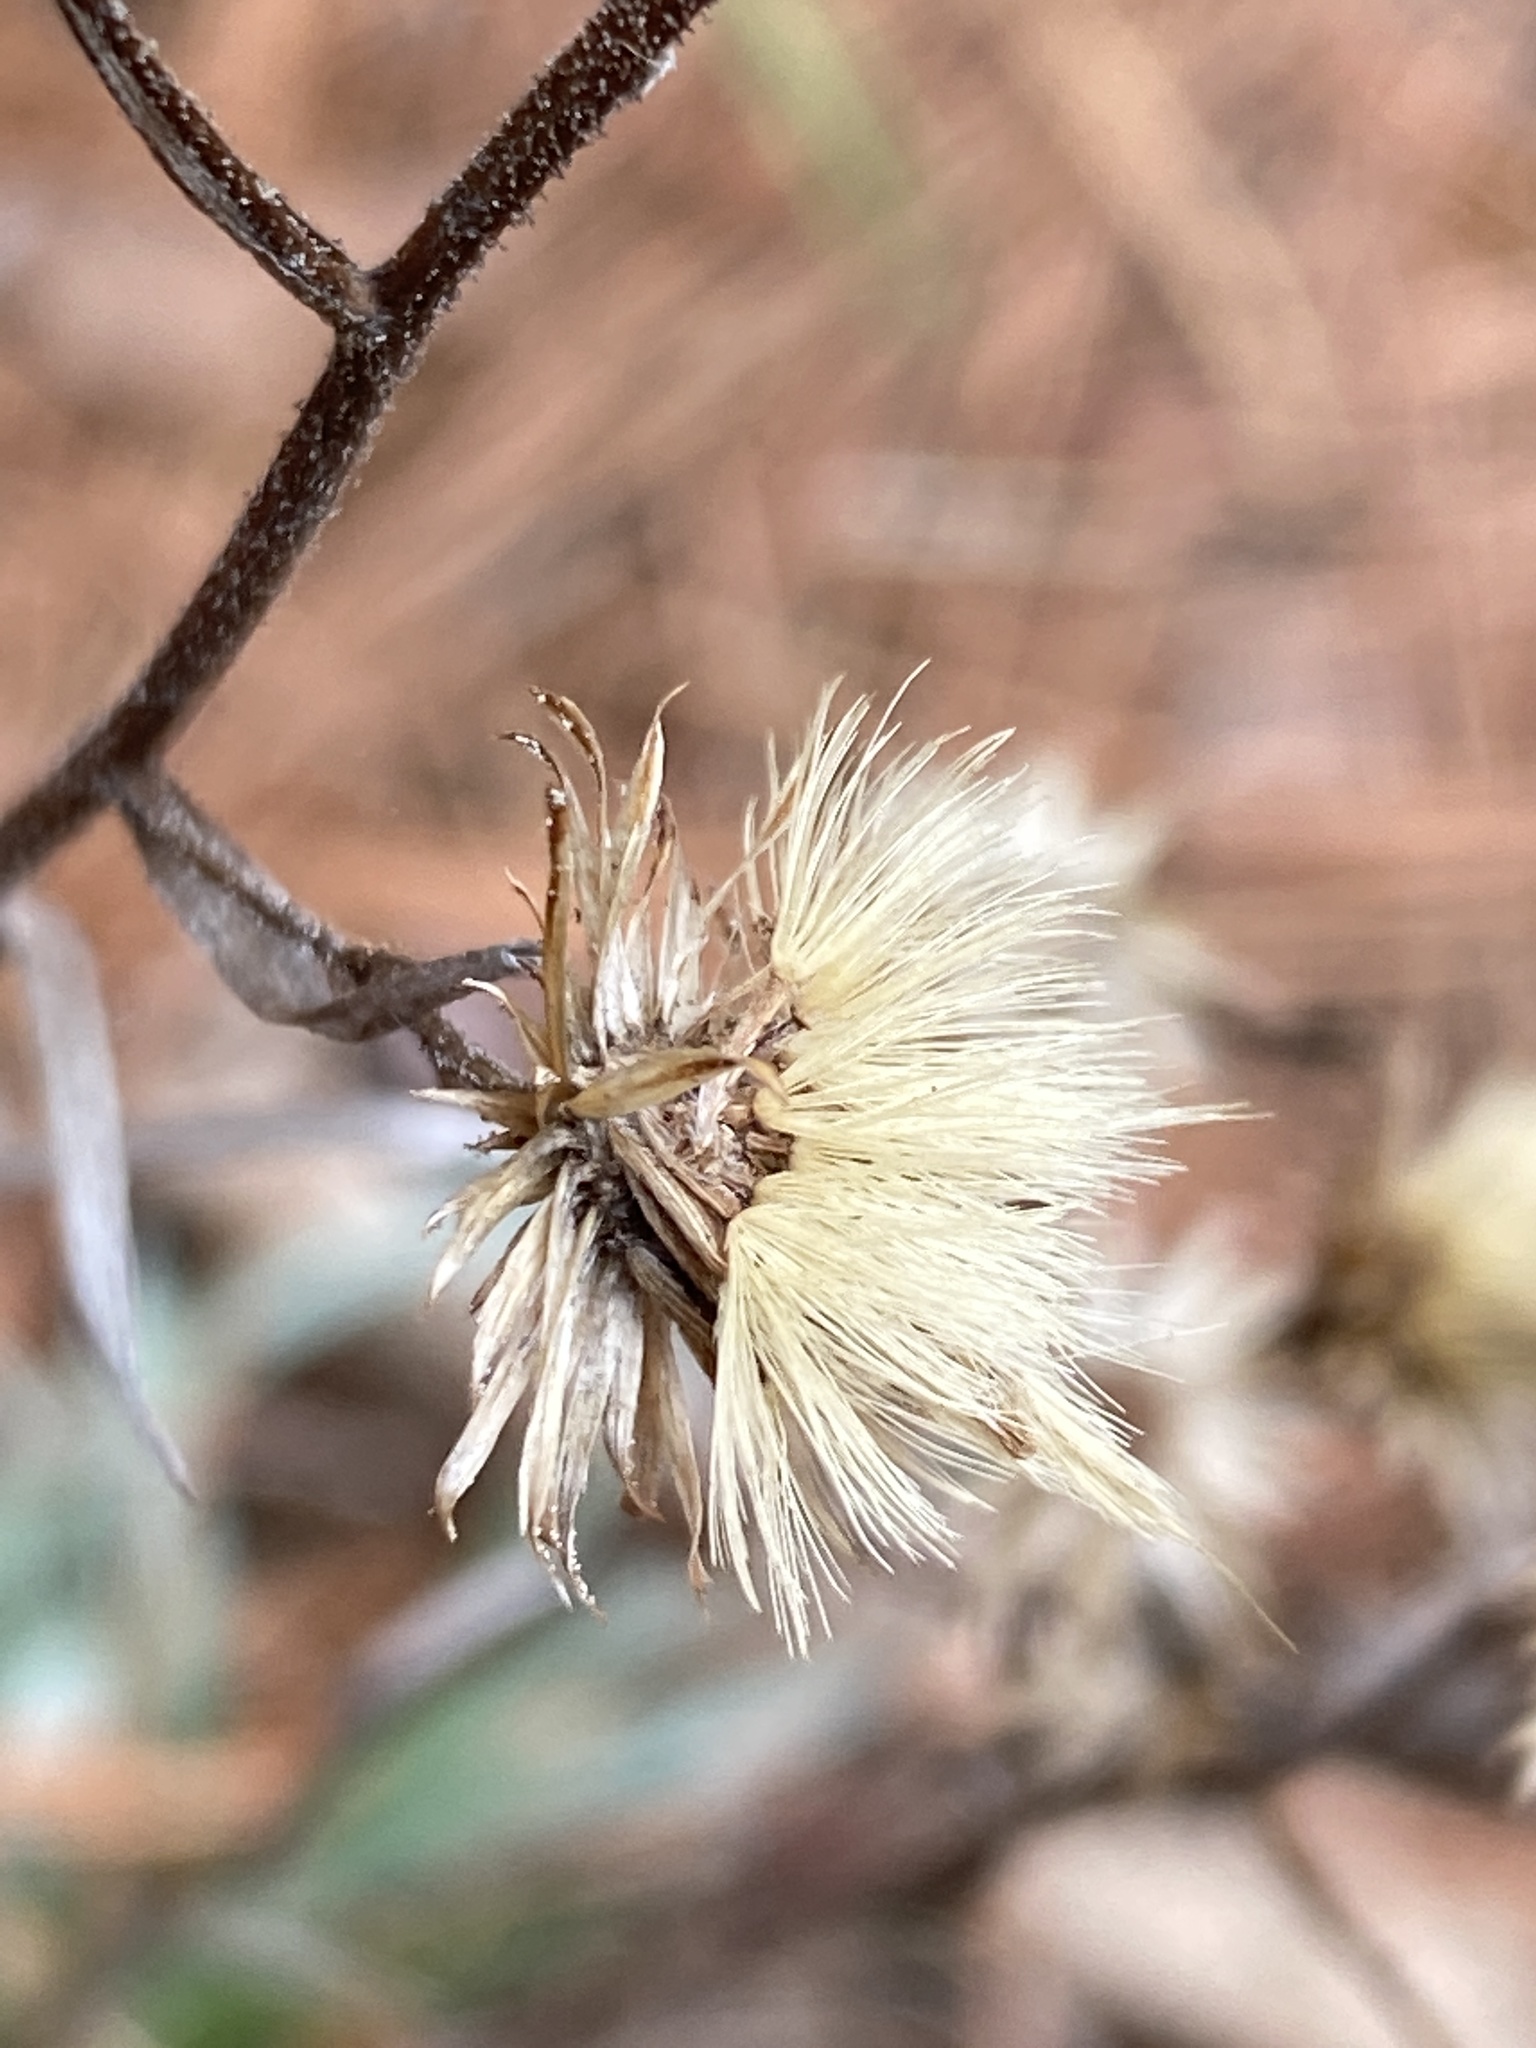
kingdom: Plantae
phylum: Tracheophyta
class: Magnoliopsida
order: Asterales
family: Asteraceae
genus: Pityopsis
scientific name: Pityopsis aspera
